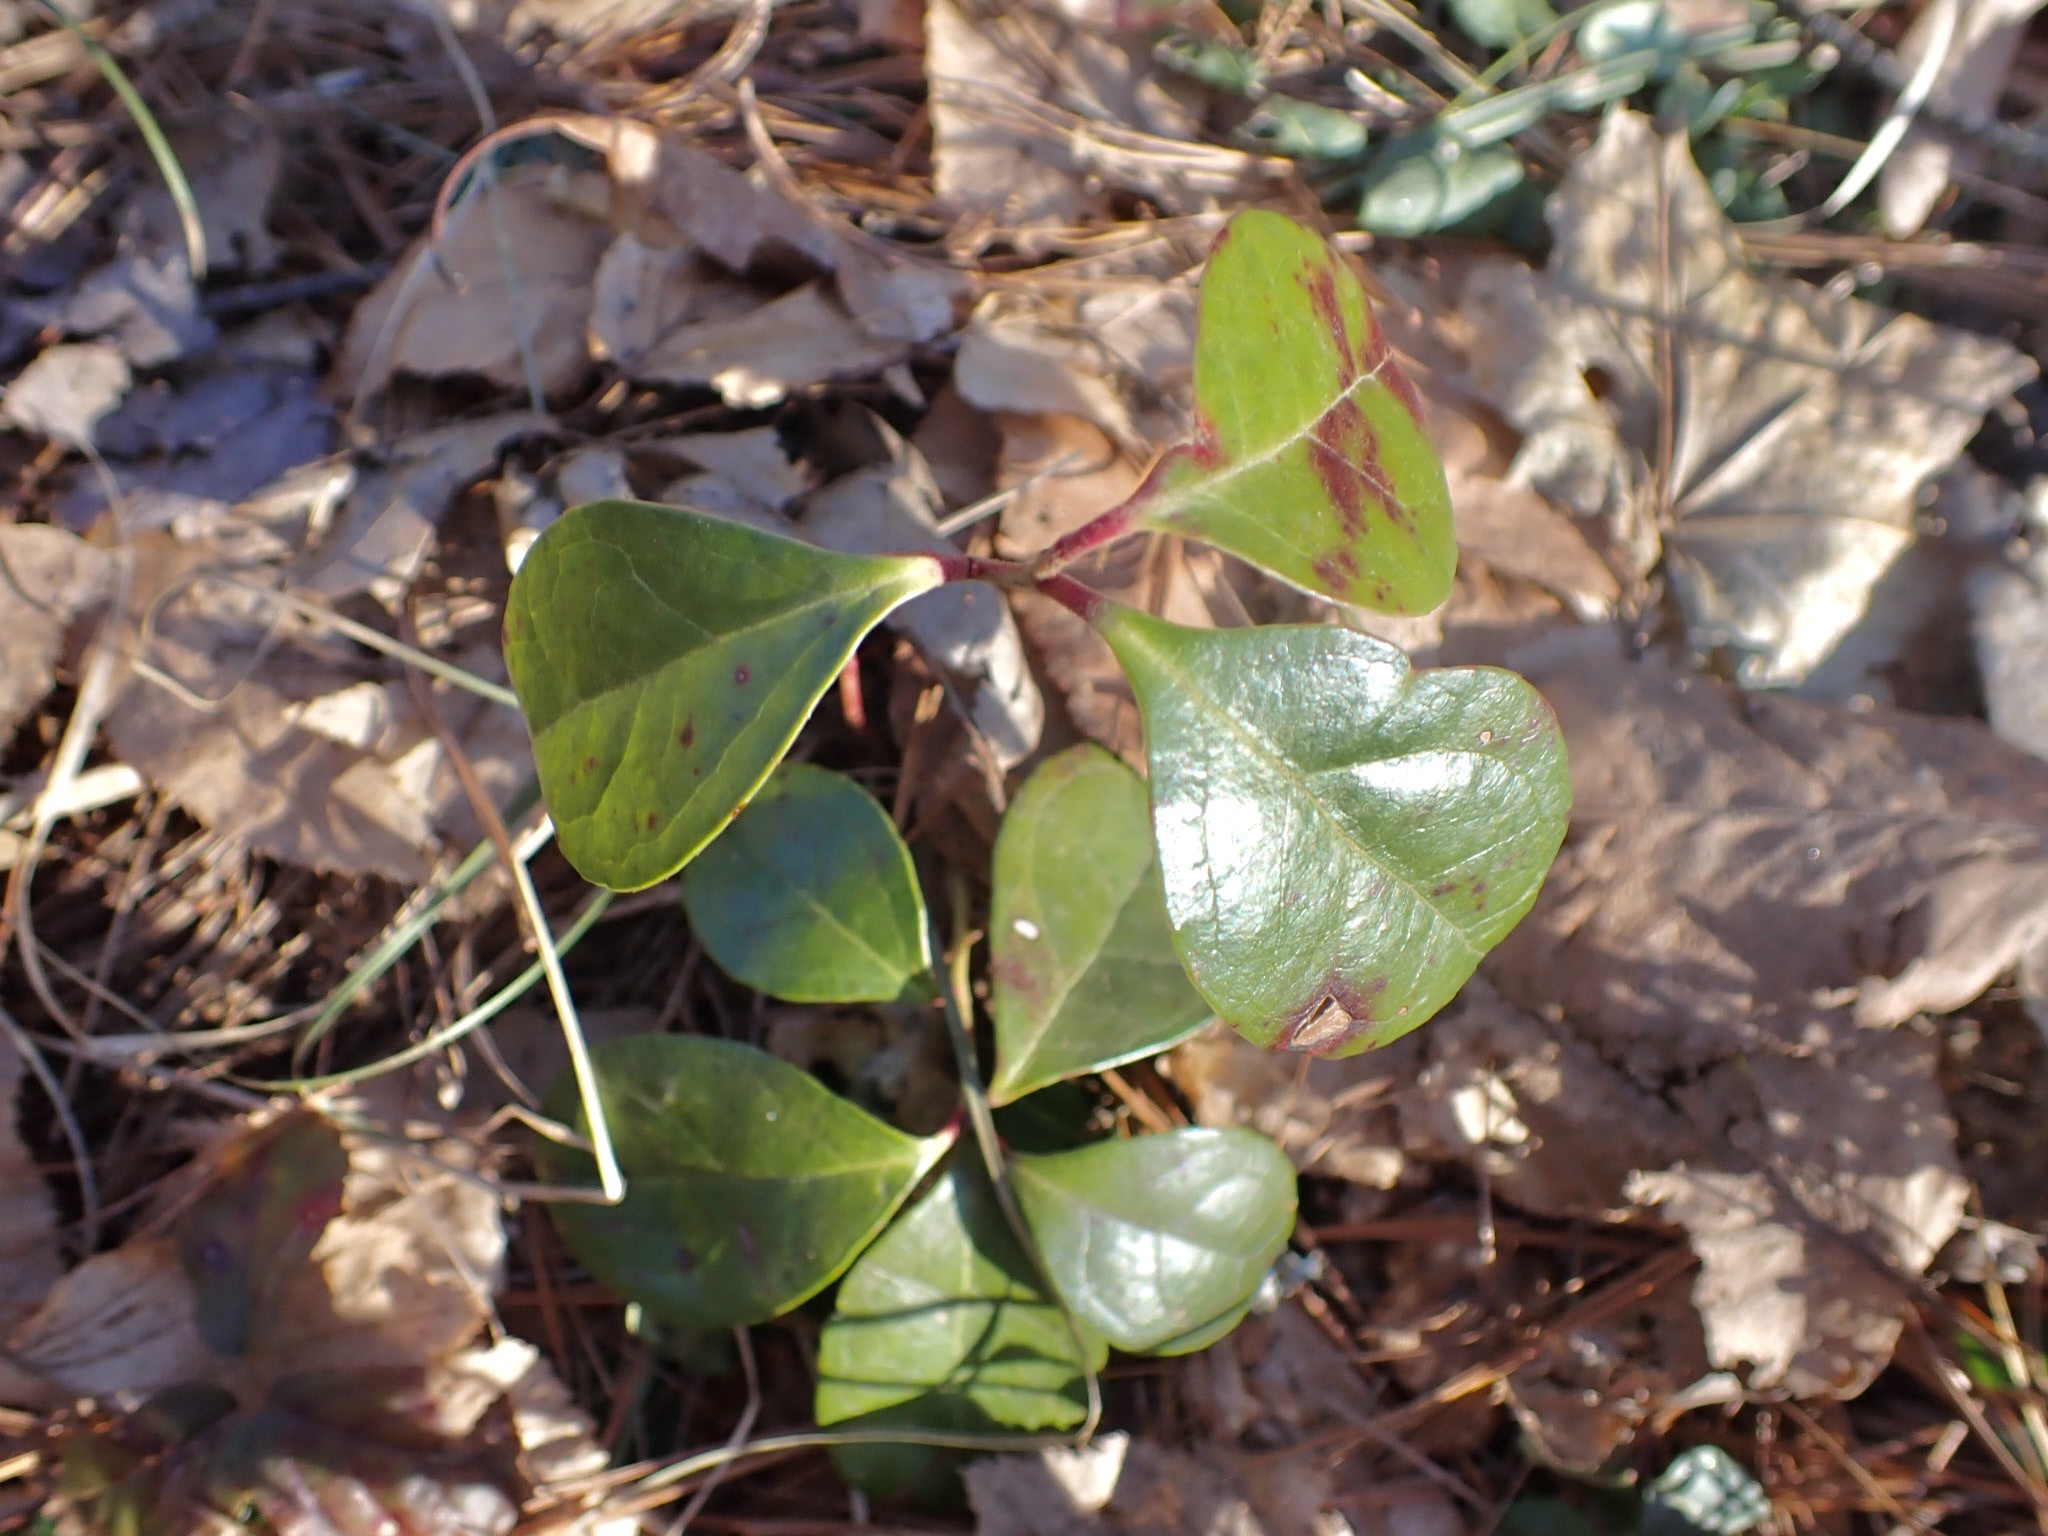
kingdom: Plantae
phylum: Tracheophyta
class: Magnoliopsida
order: Ericales
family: Ericaceae
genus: Gaultheria
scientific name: Gaultheria procumbens
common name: Checkerberry
